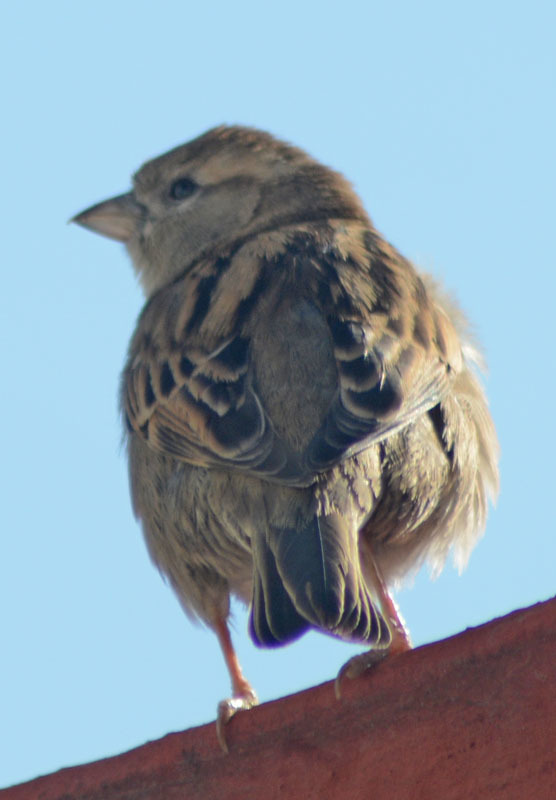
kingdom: Animalia
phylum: Chordata
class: Aves
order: Passeriformes
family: Passeridae
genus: Passer
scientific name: Passer domesticus
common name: House sparrow
